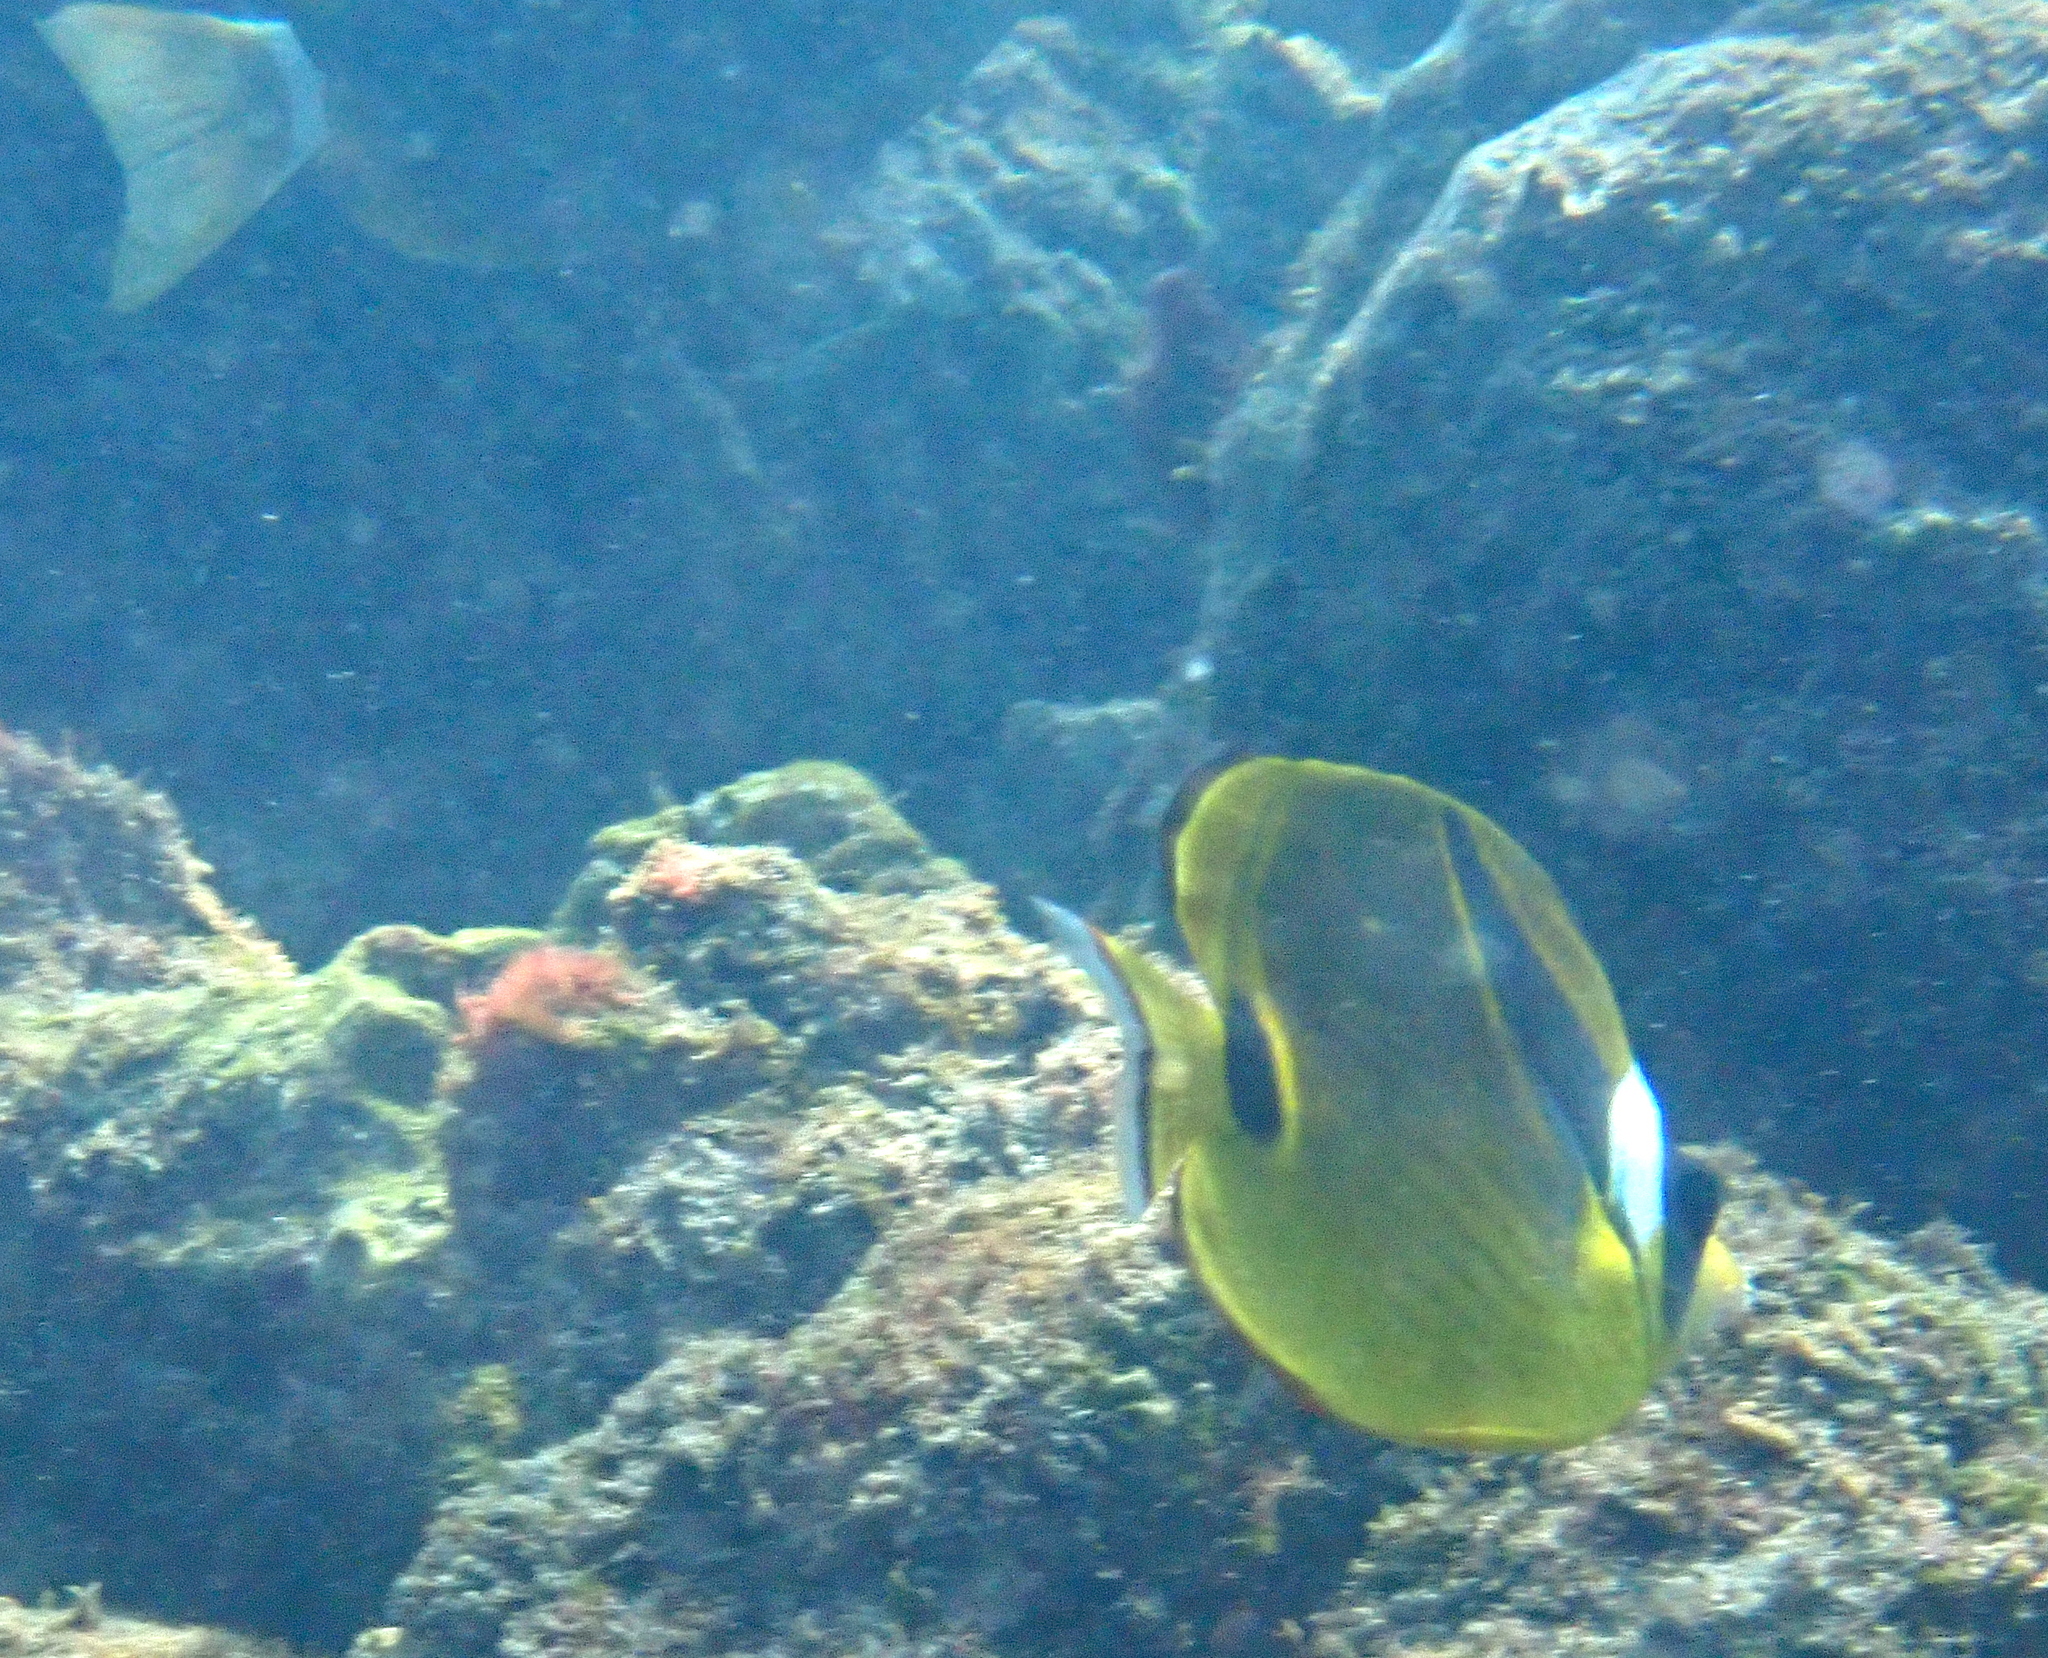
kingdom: Animalia
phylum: Chordata
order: Perciformes
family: Chaetodontidae
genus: Chaetodon
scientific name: Chaetodon lunula
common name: Raccoon butterflyfish
